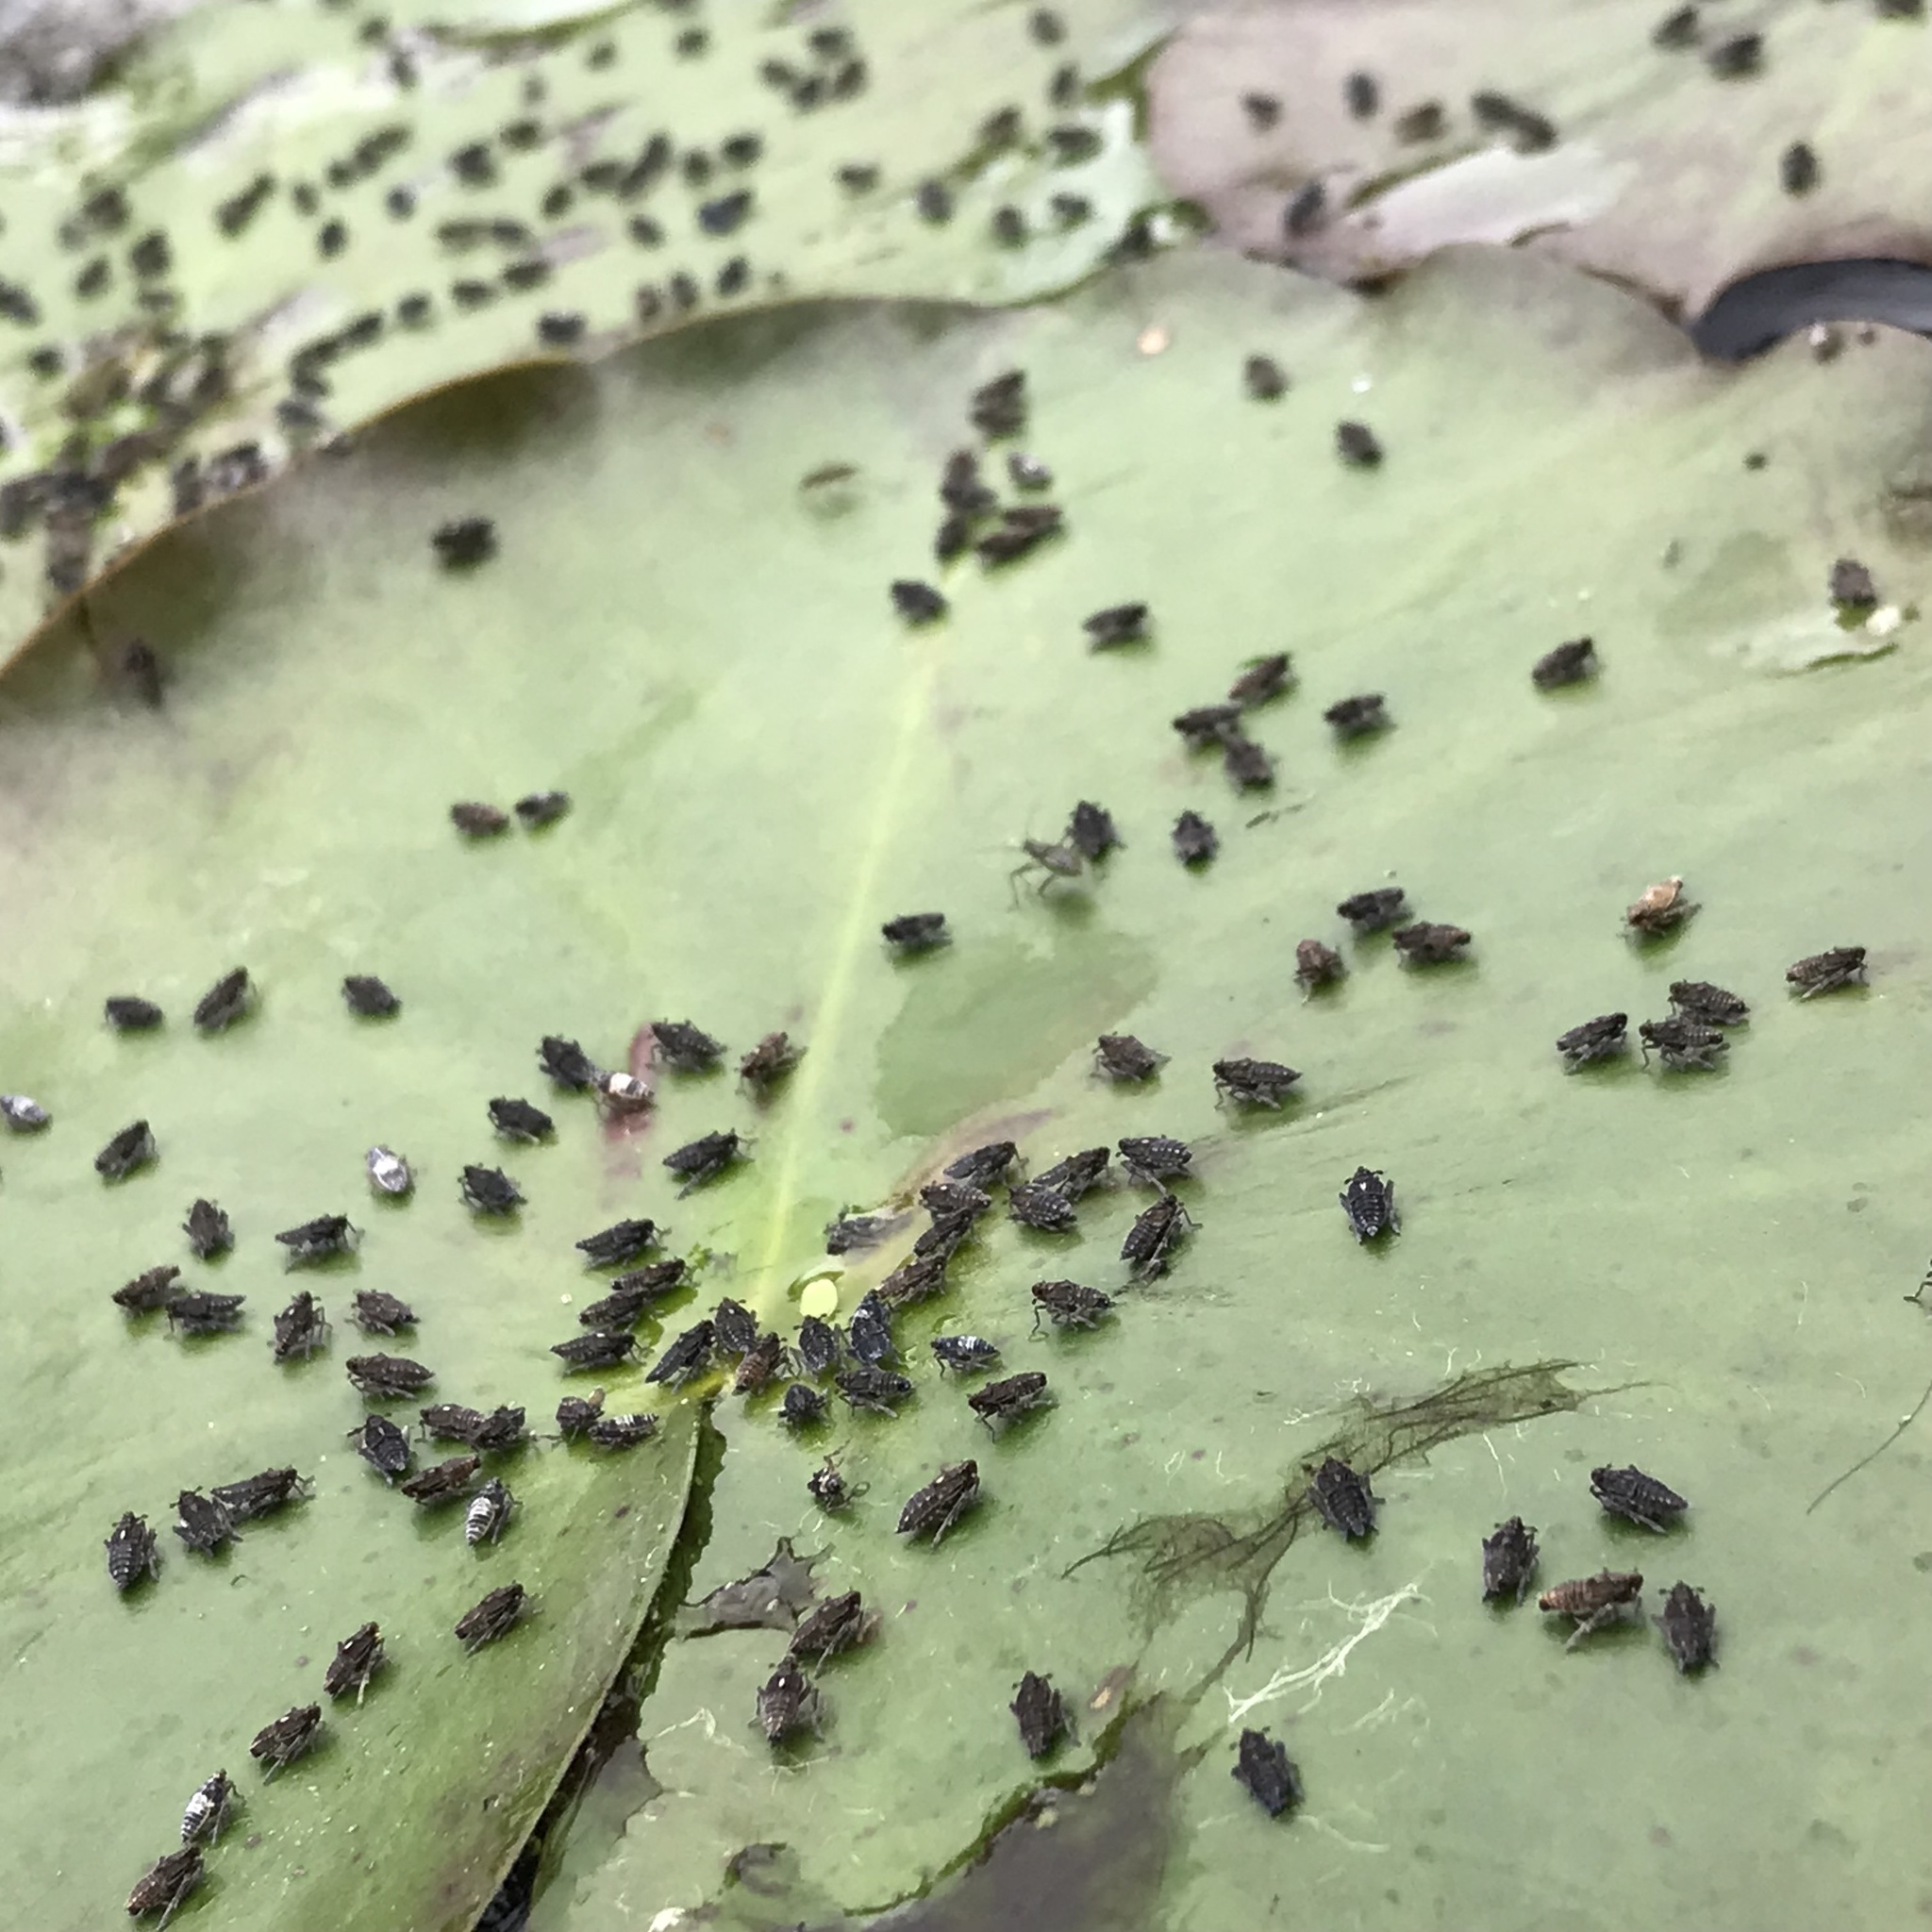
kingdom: Animalia
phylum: Arthropoda
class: Insecta
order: Hemiptera
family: Delphacidae
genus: Megamelus
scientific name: Megamelus davisi
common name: Planthopper
